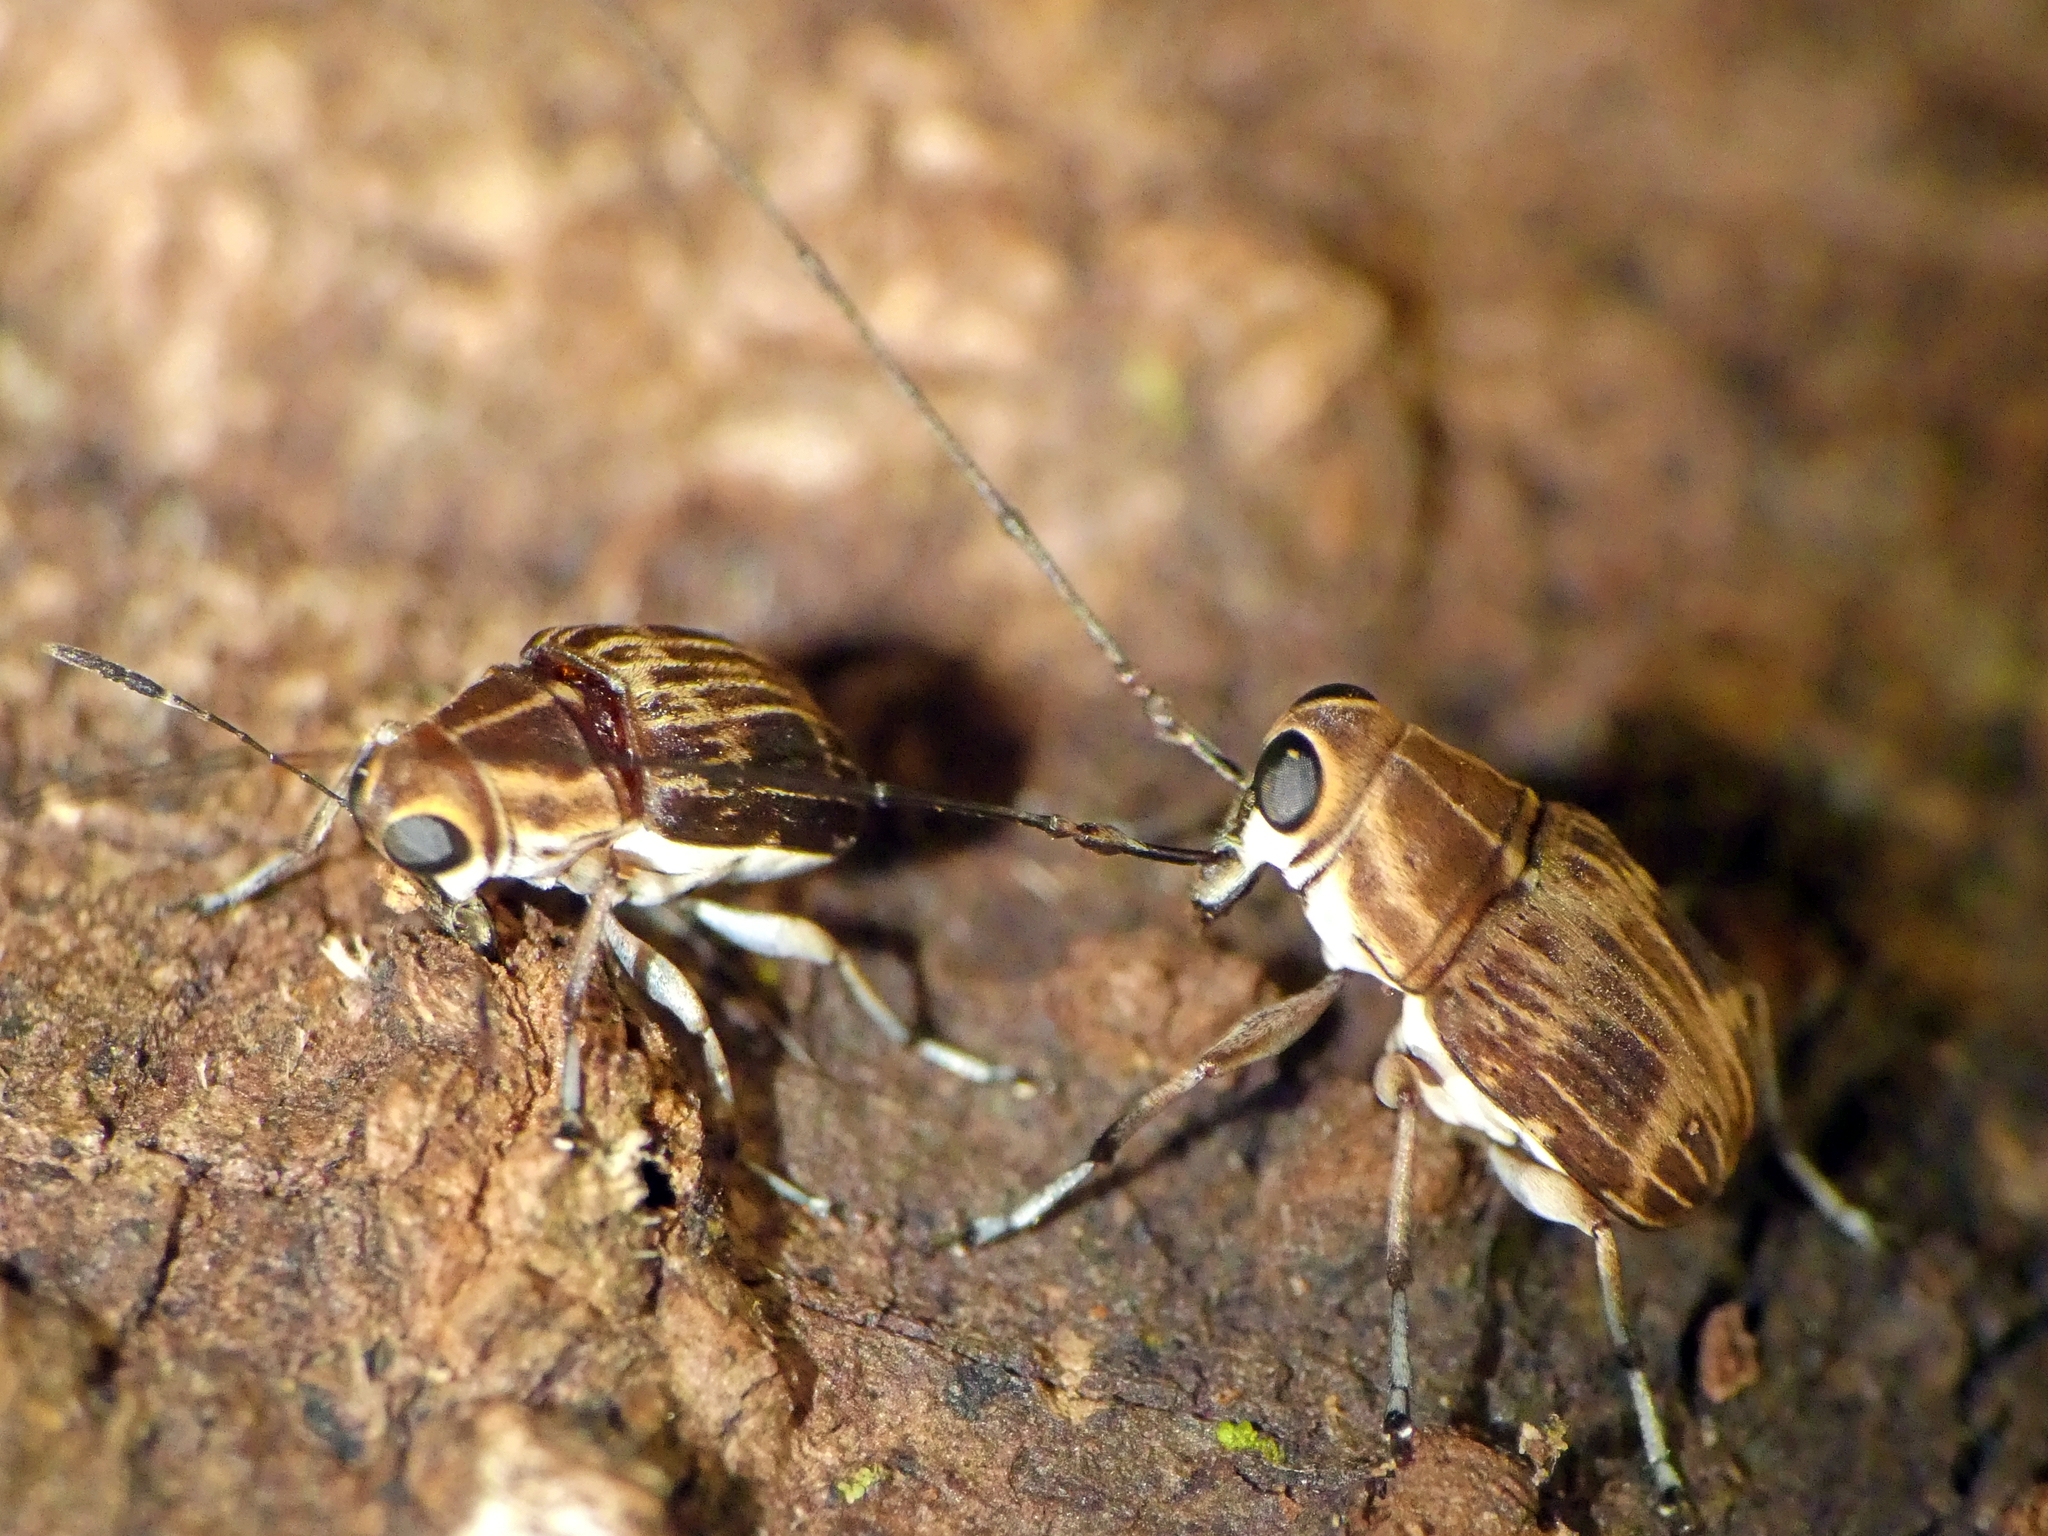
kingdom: Animalia
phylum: Arthropoda
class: Insecta
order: Coleoptera
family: Anthribidae
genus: Hucus
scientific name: Hucus persimilis
